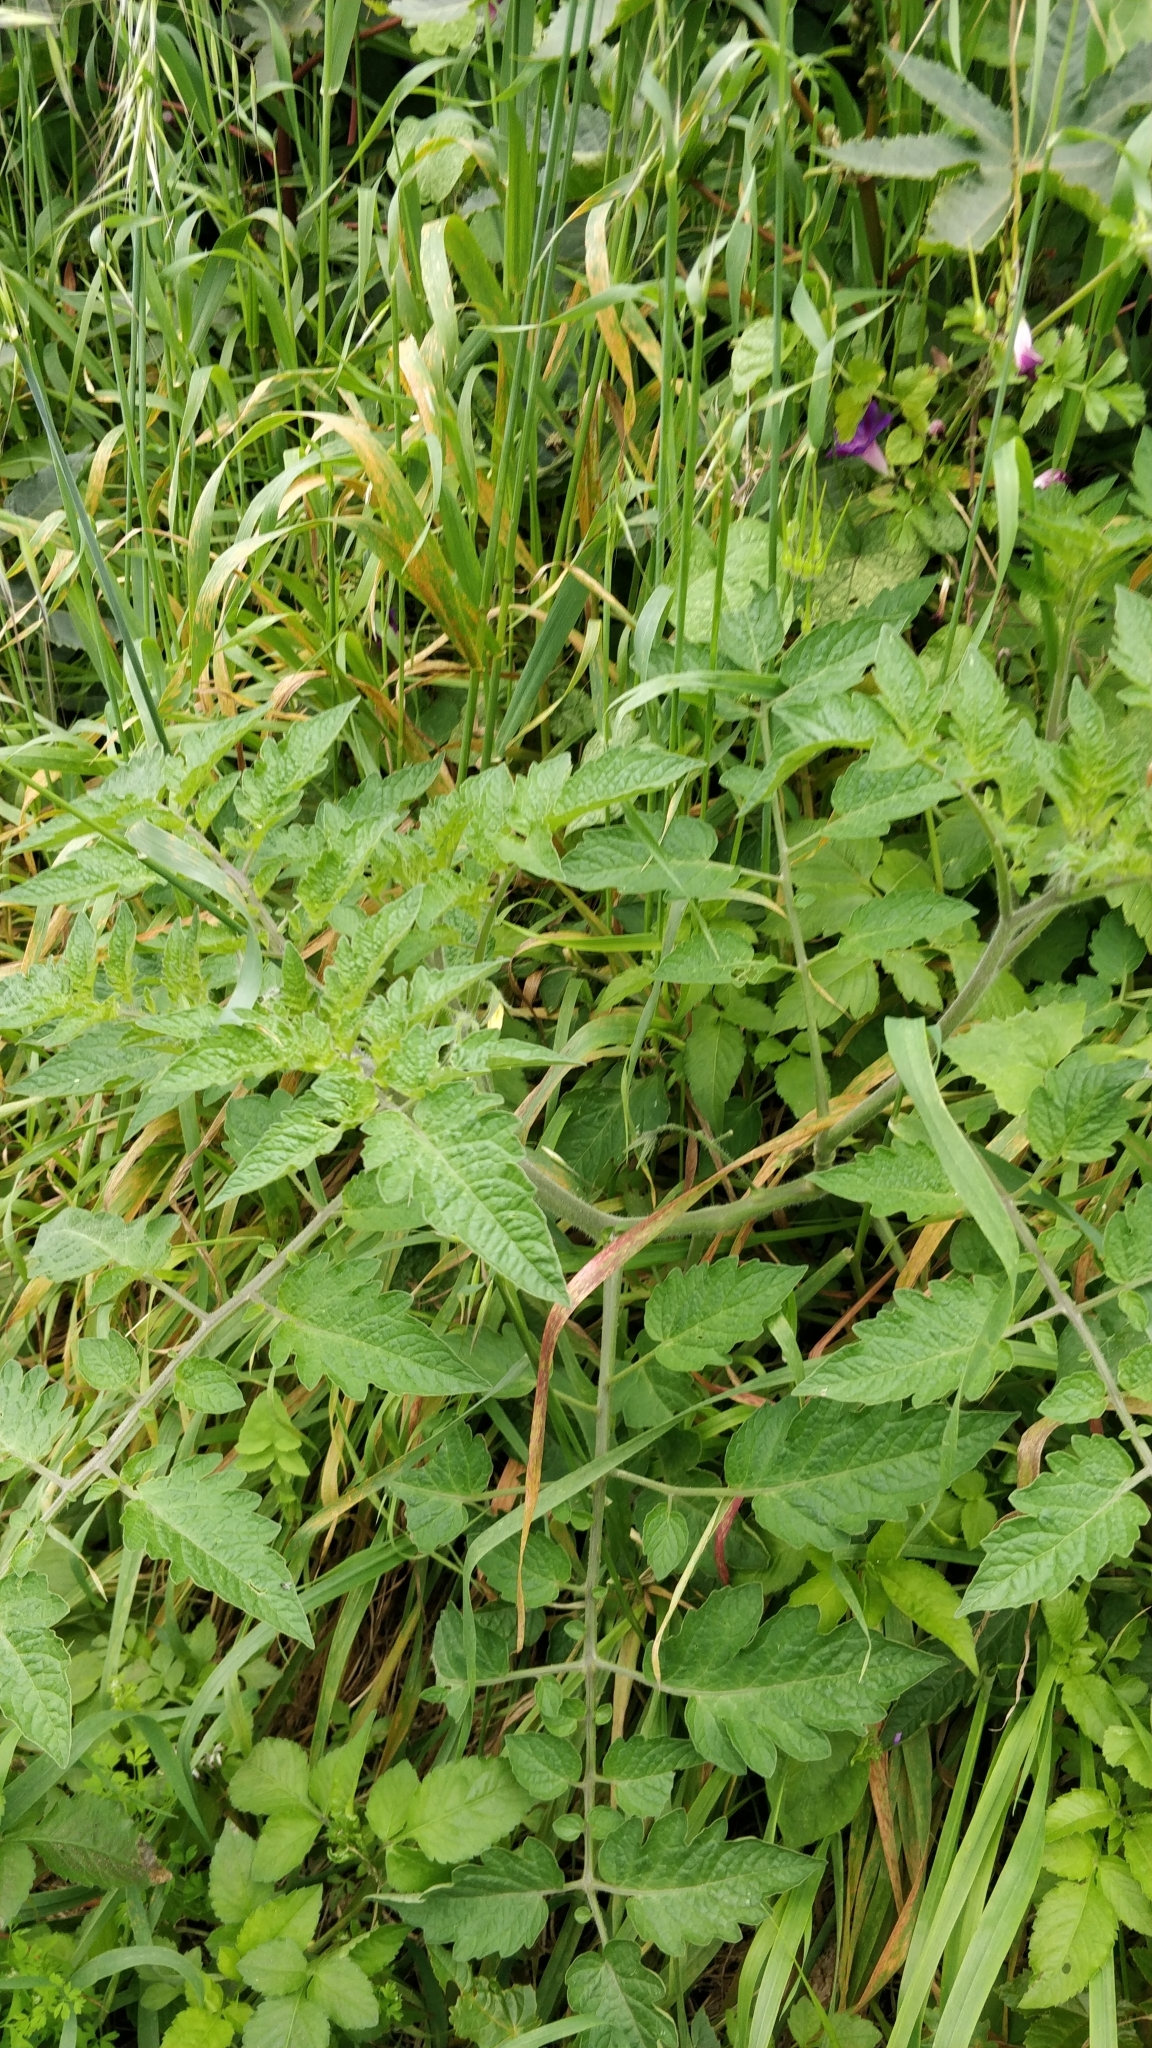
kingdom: Plantae
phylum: Tracheophyta
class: Magnoliopsida
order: Solanales
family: Solanaceae
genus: Solanum
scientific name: Solanum lycopersicum
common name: Garden tomato
